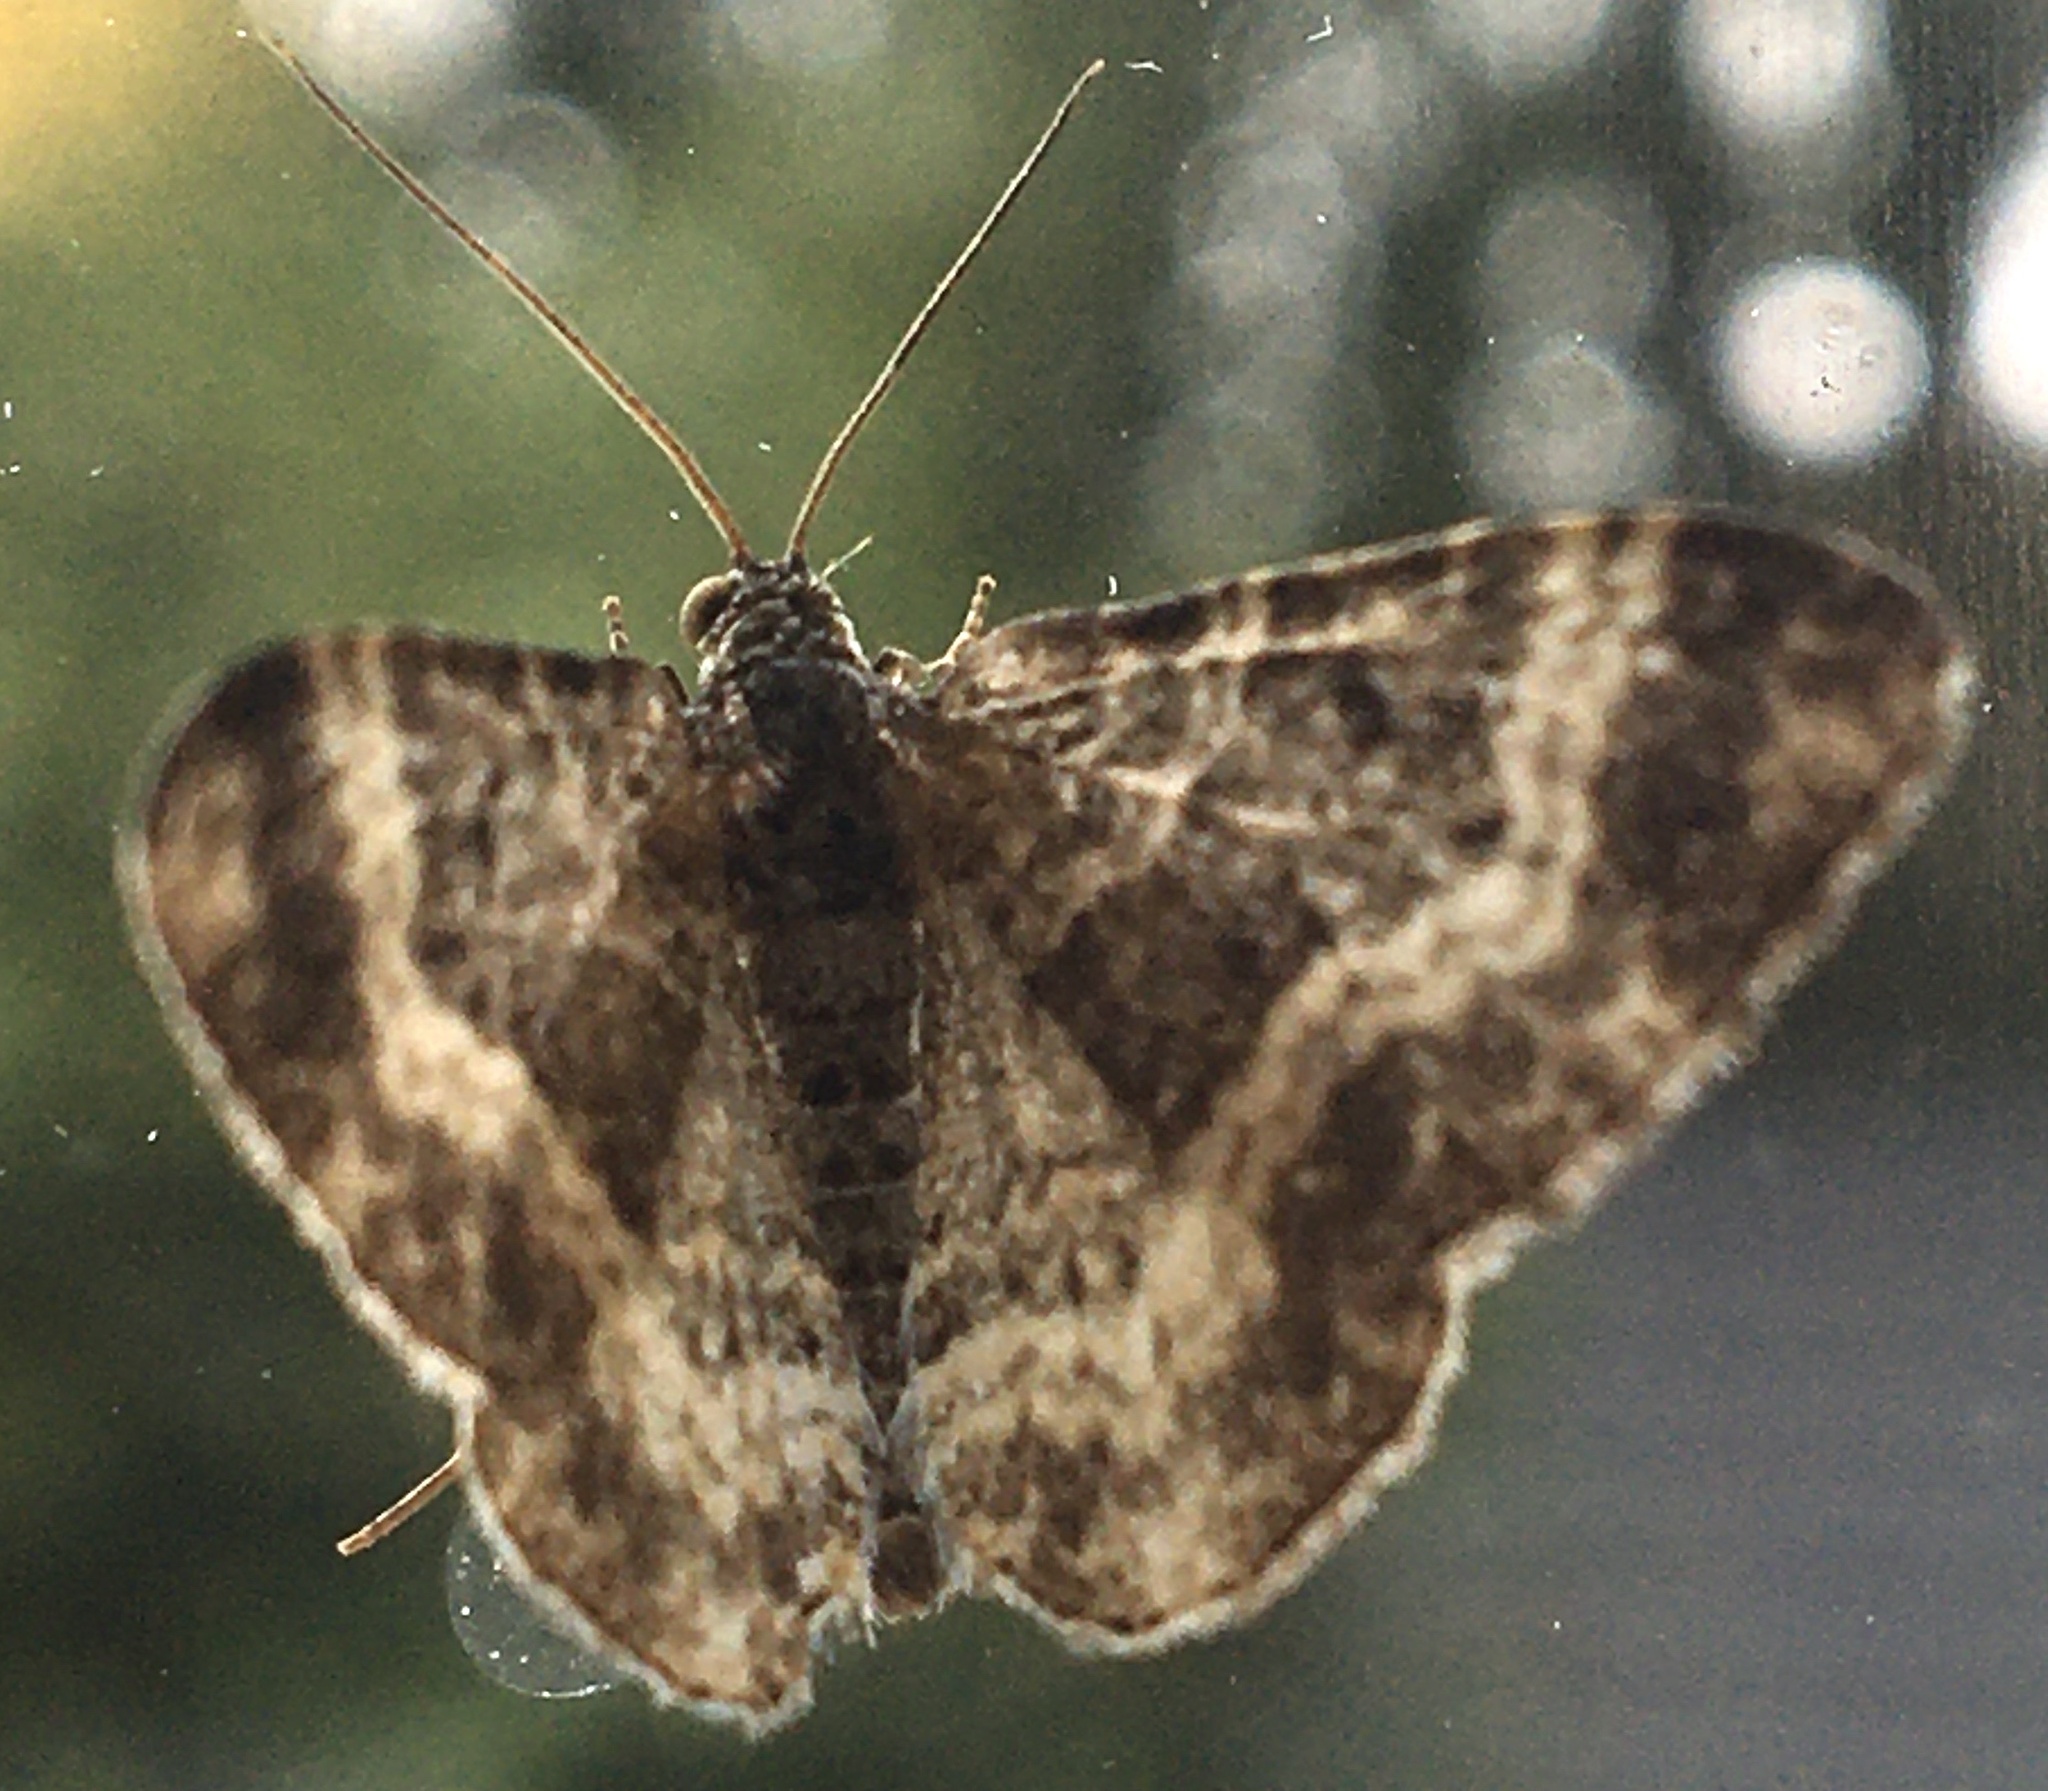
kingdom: Animalia
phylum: Arthropoda
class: Insecta
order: Lepidoptera
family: Geometridae
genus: Epirrhoe
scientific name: Epirrhoe alternata
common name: Common carpet
